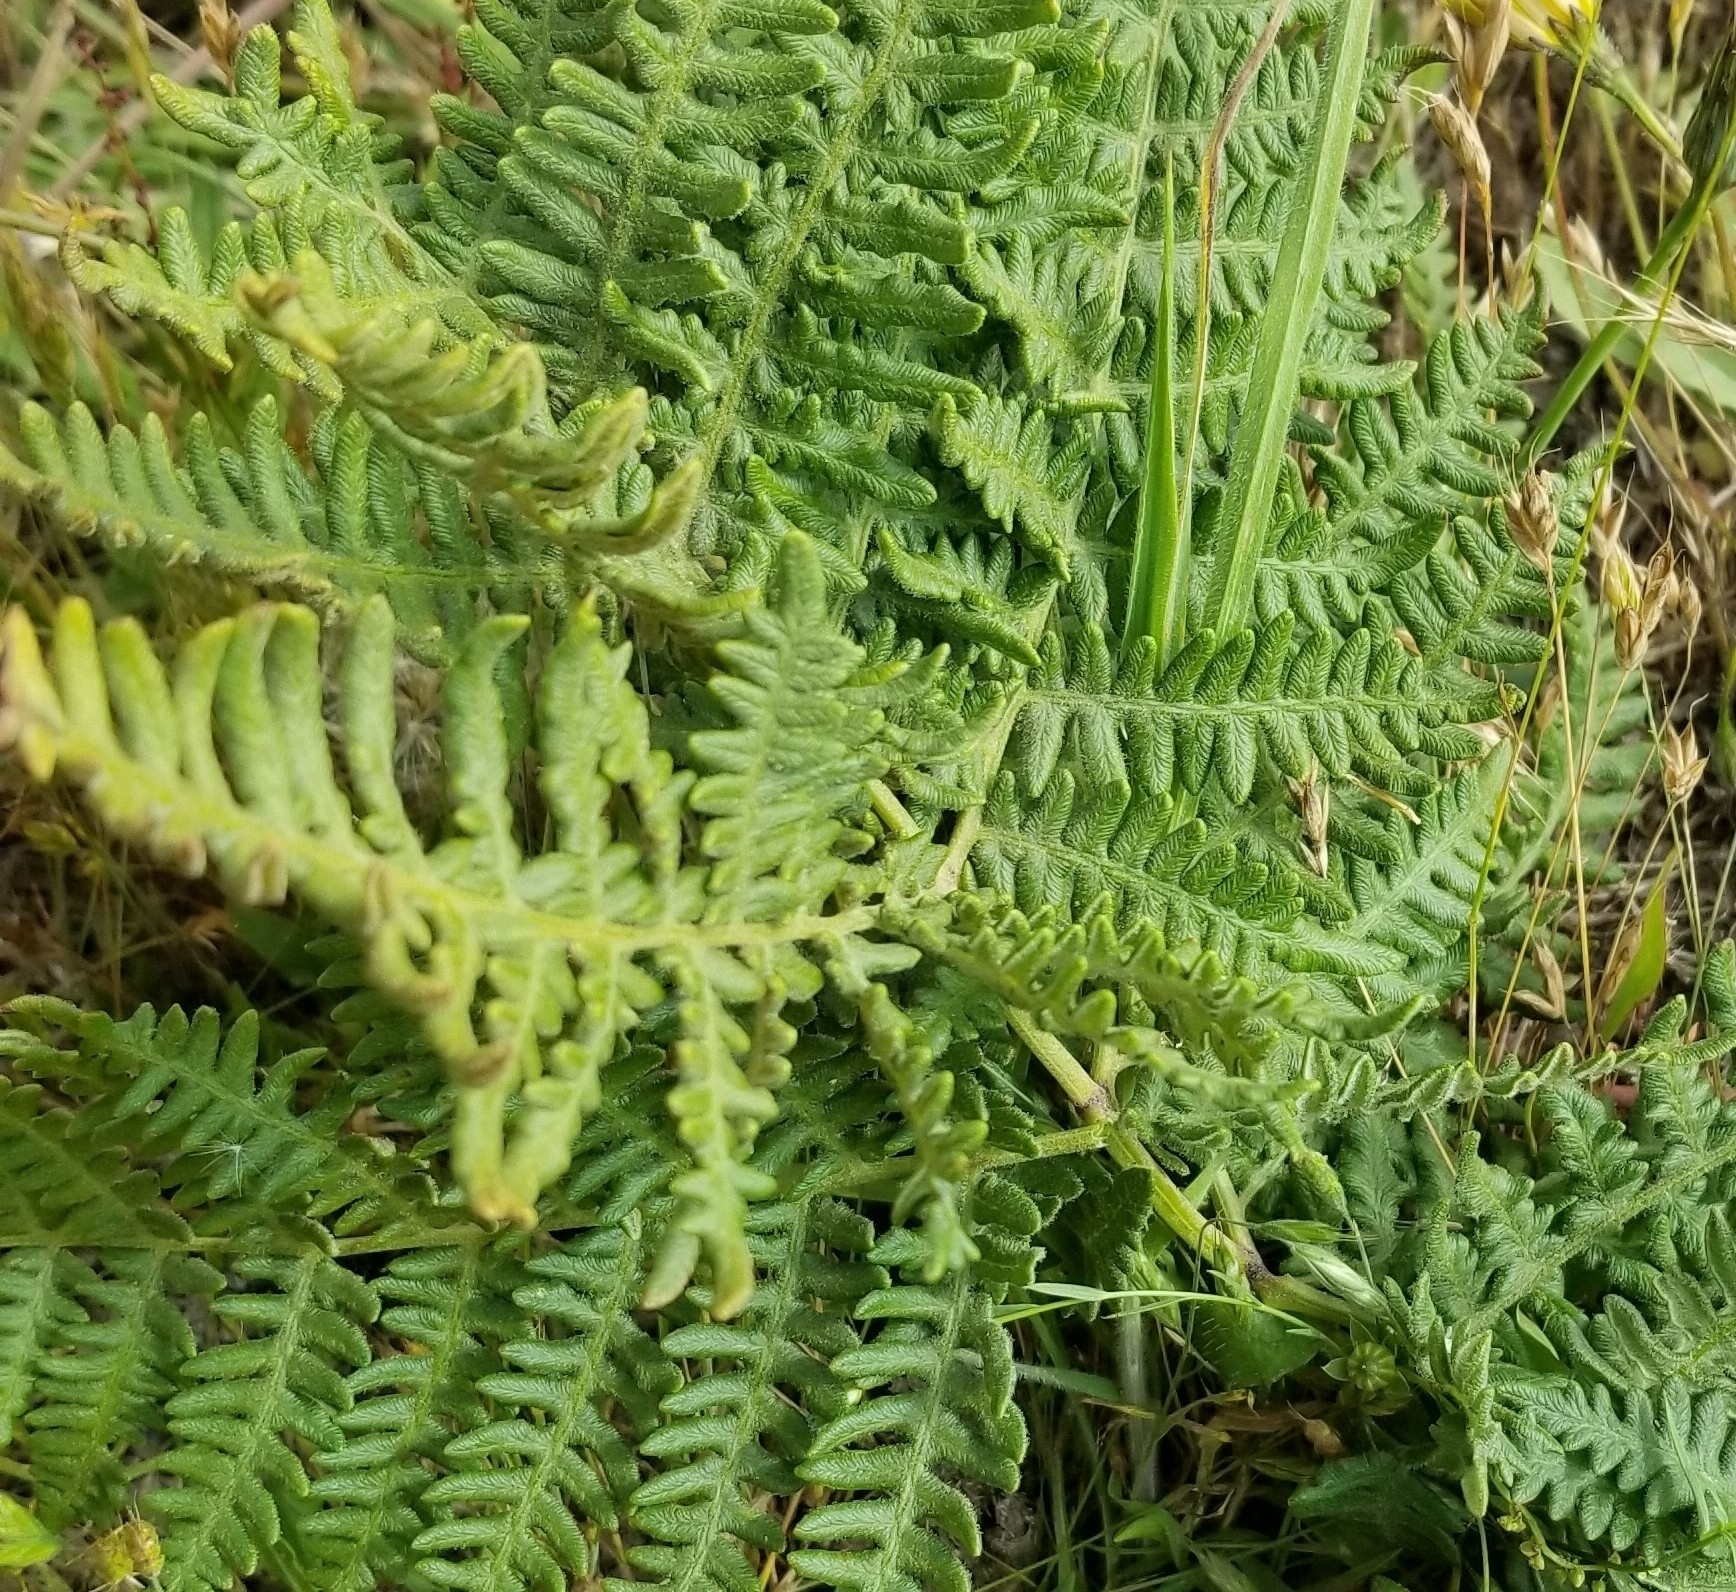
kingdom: Plantae
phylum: Tracheophyta
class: Polypodiopsida
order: Polypodiales
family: Dennstaedtiaceae
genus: Pteridium
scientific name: Pteridium aquilinum
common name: Bracken
